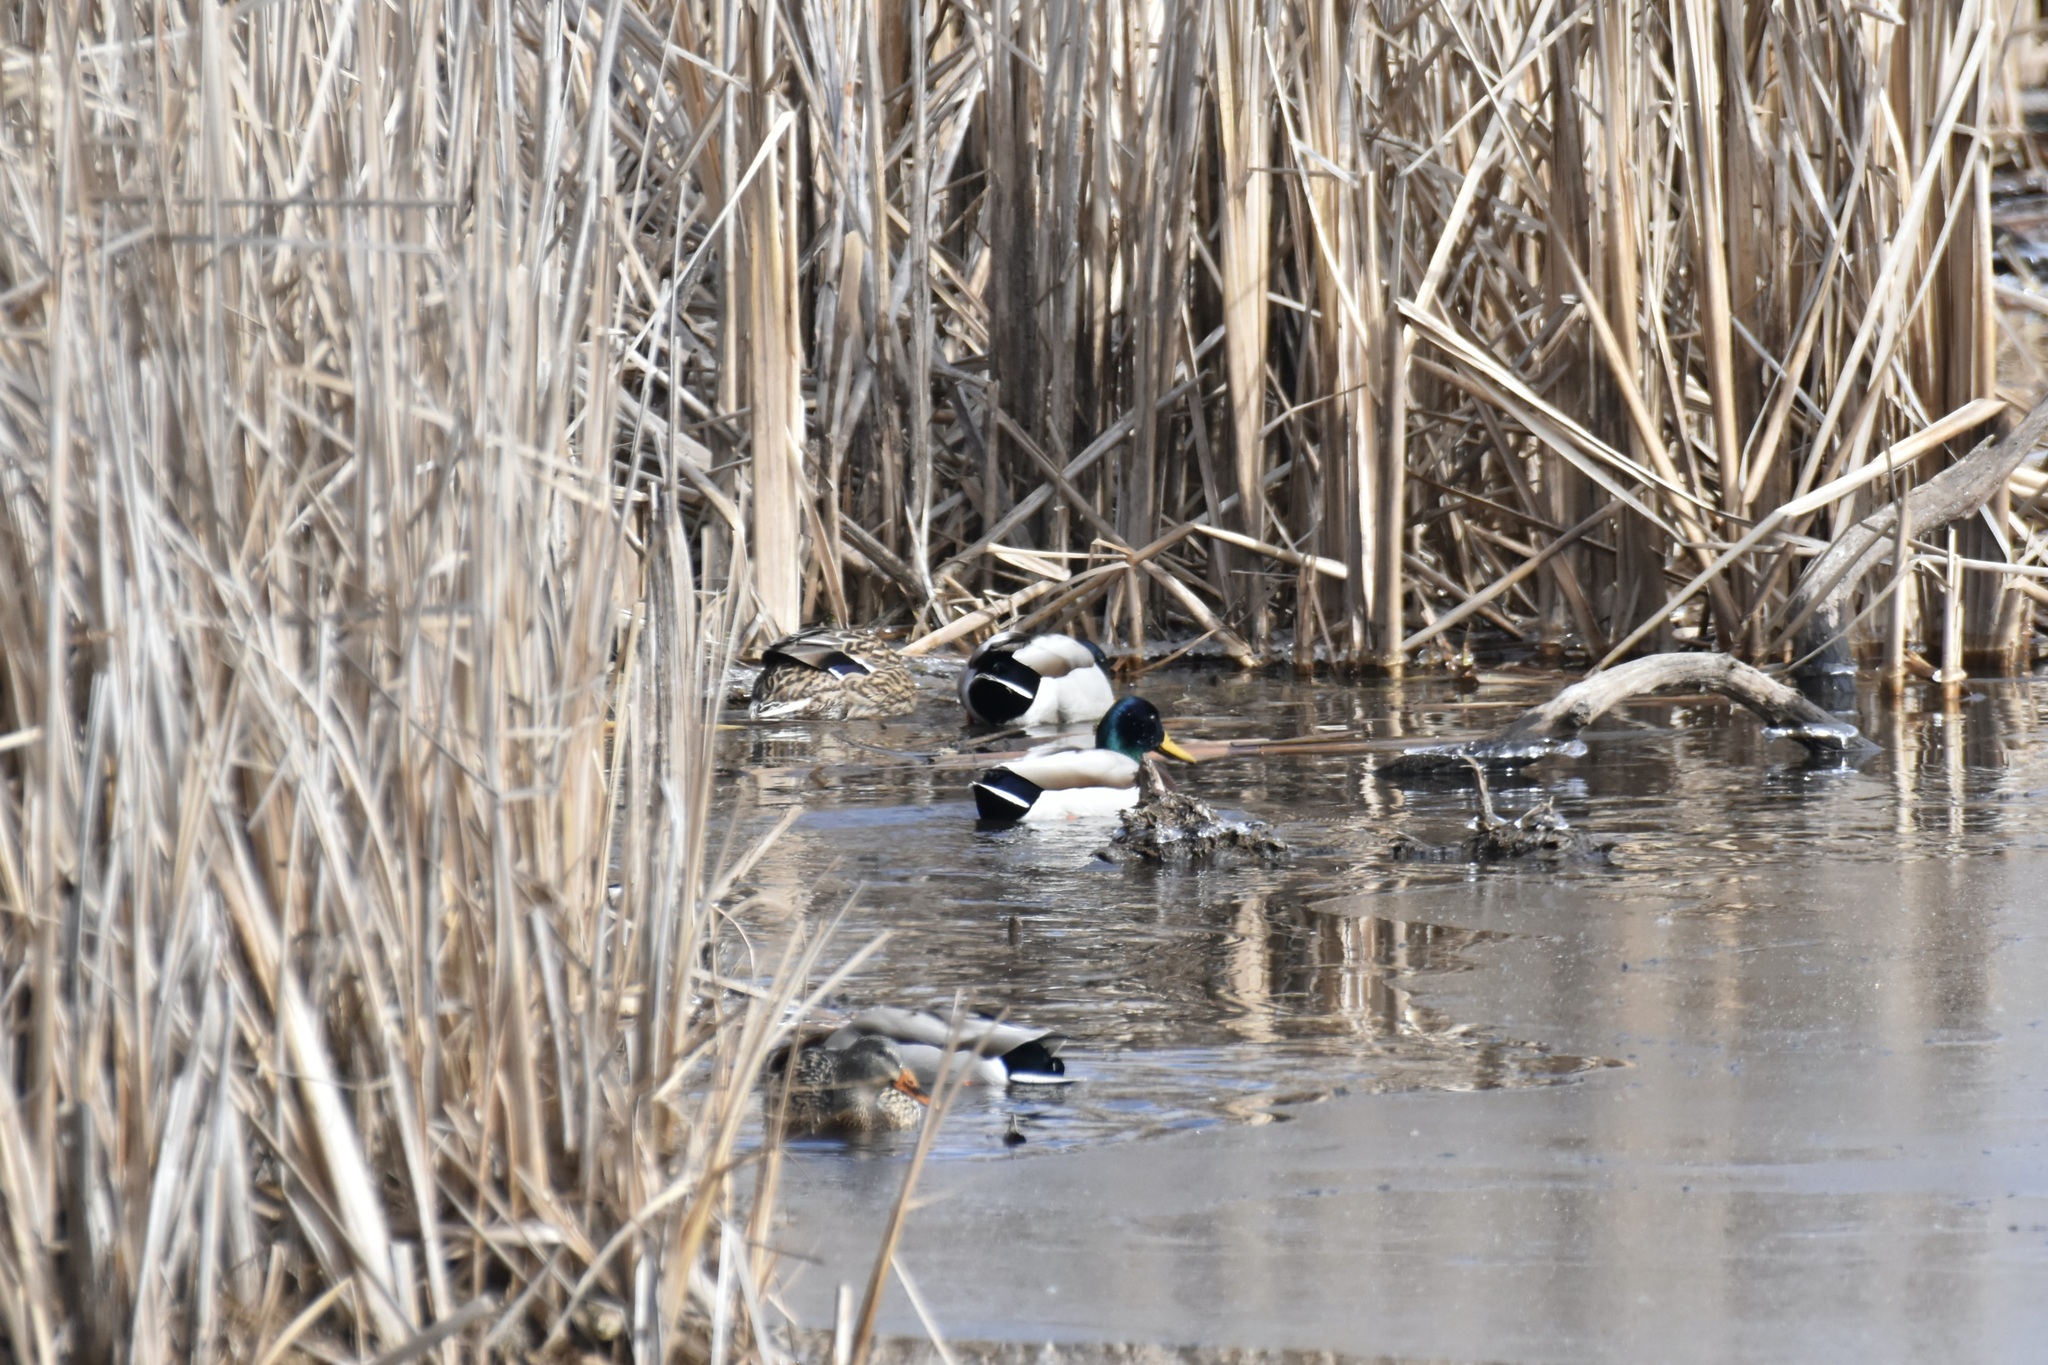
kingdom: Animalia
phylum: Chordata
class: Aves
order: Anseriformes
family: Anatidae
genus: Anas
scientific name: Anas platyrhynchos
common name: Mallard
